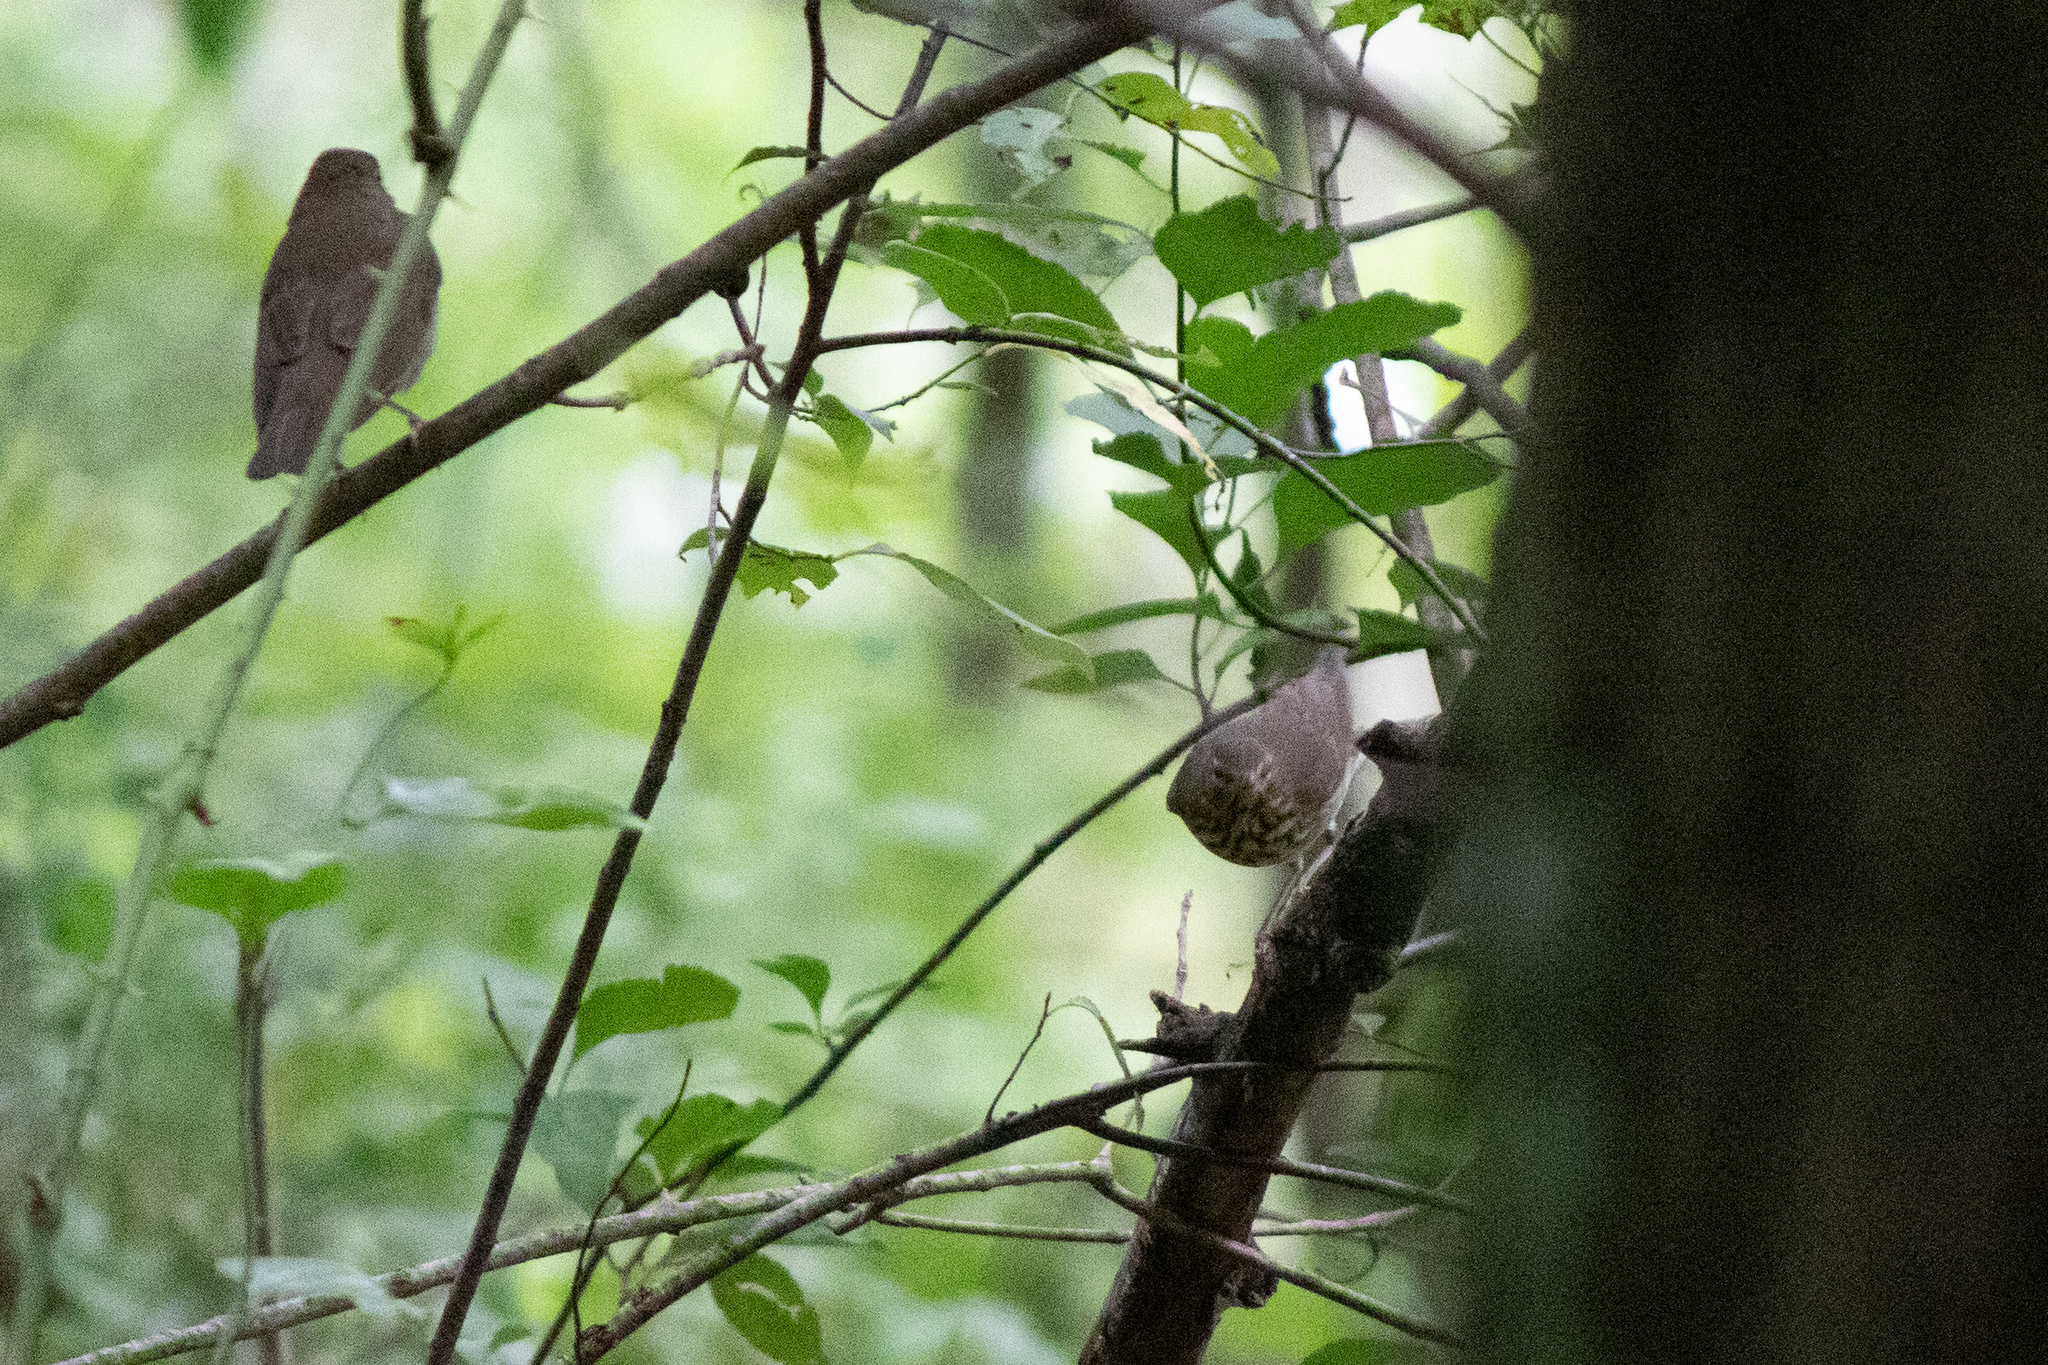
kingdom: Animalia
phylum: Chordata
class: Aves
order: Passeriformes
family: Parulidae
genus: Parkesia
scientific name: Parkesia noveboracensis
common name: Northern waterthrush
